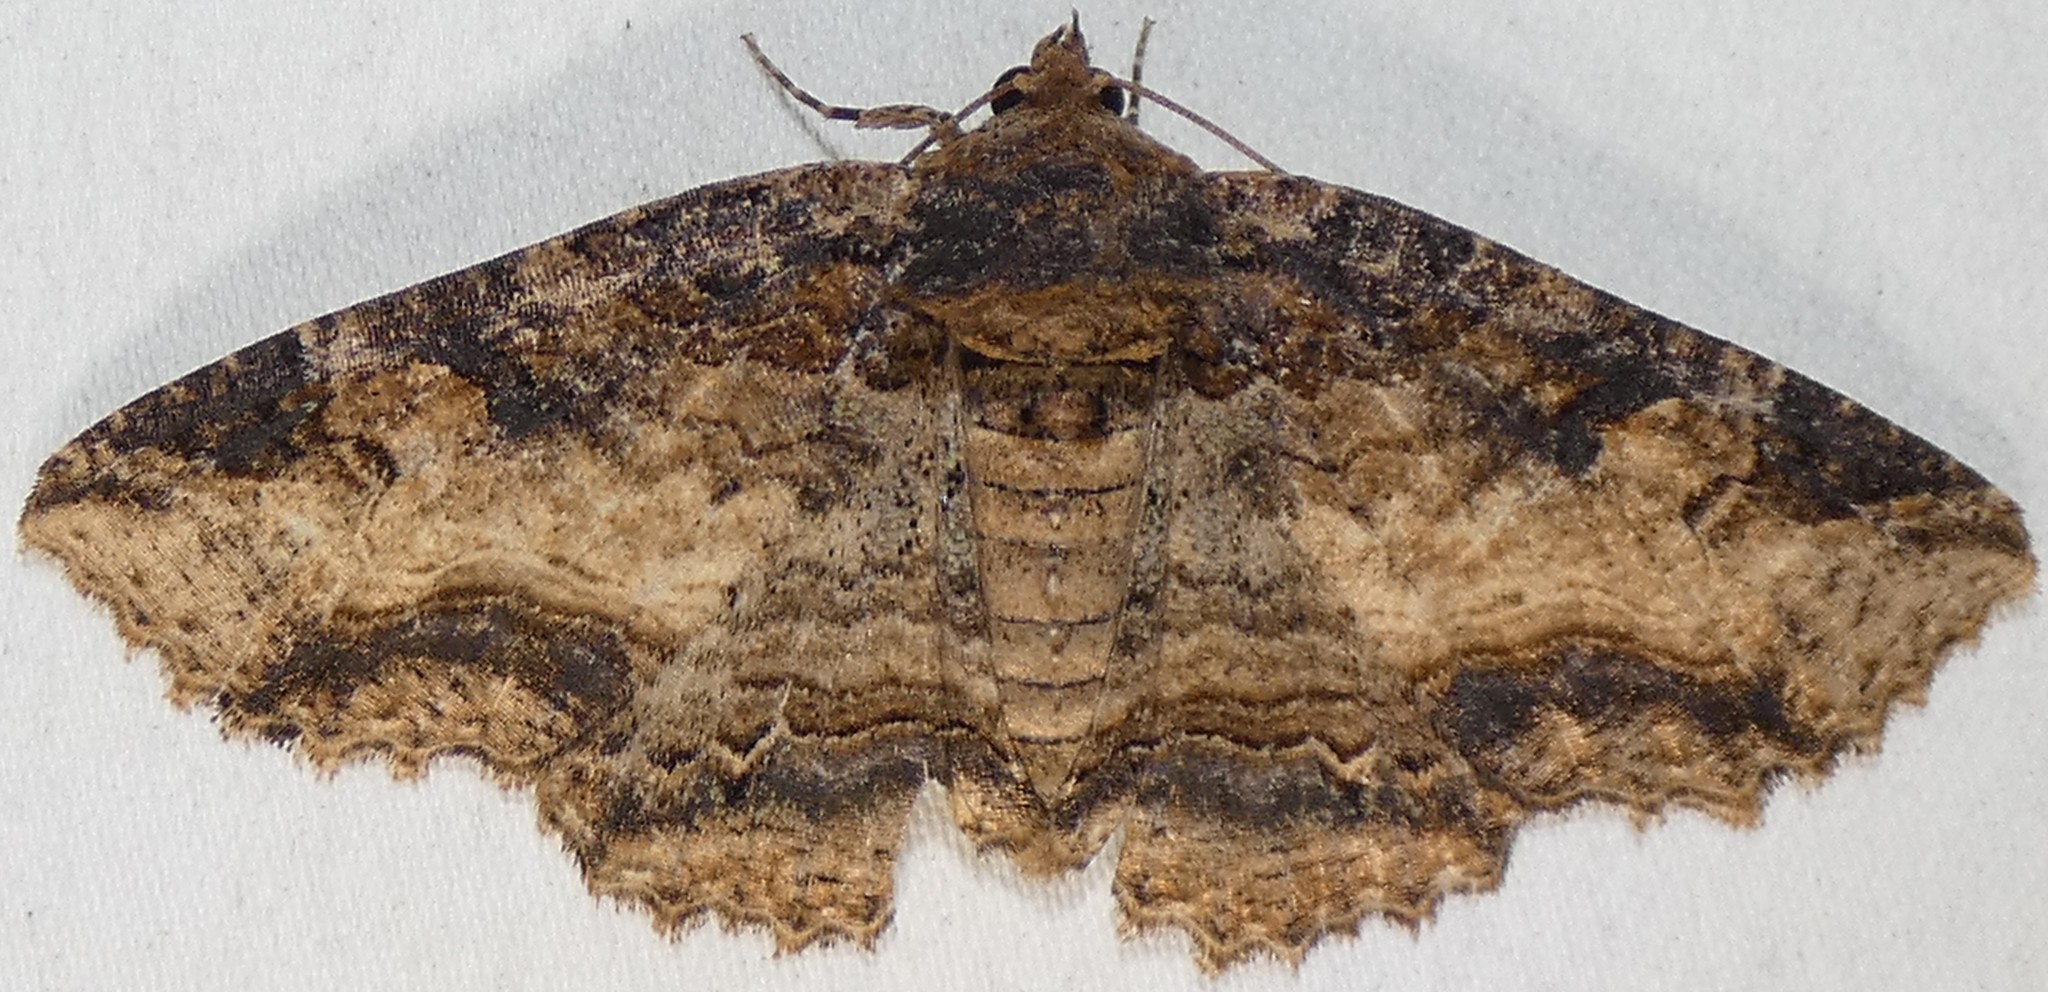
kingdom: Animalia
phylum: Arthropoda
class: Insecta
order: Lepidoptera
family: Erebidae
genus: Zale
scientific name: Zale minerea
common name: Colorful zale moth
